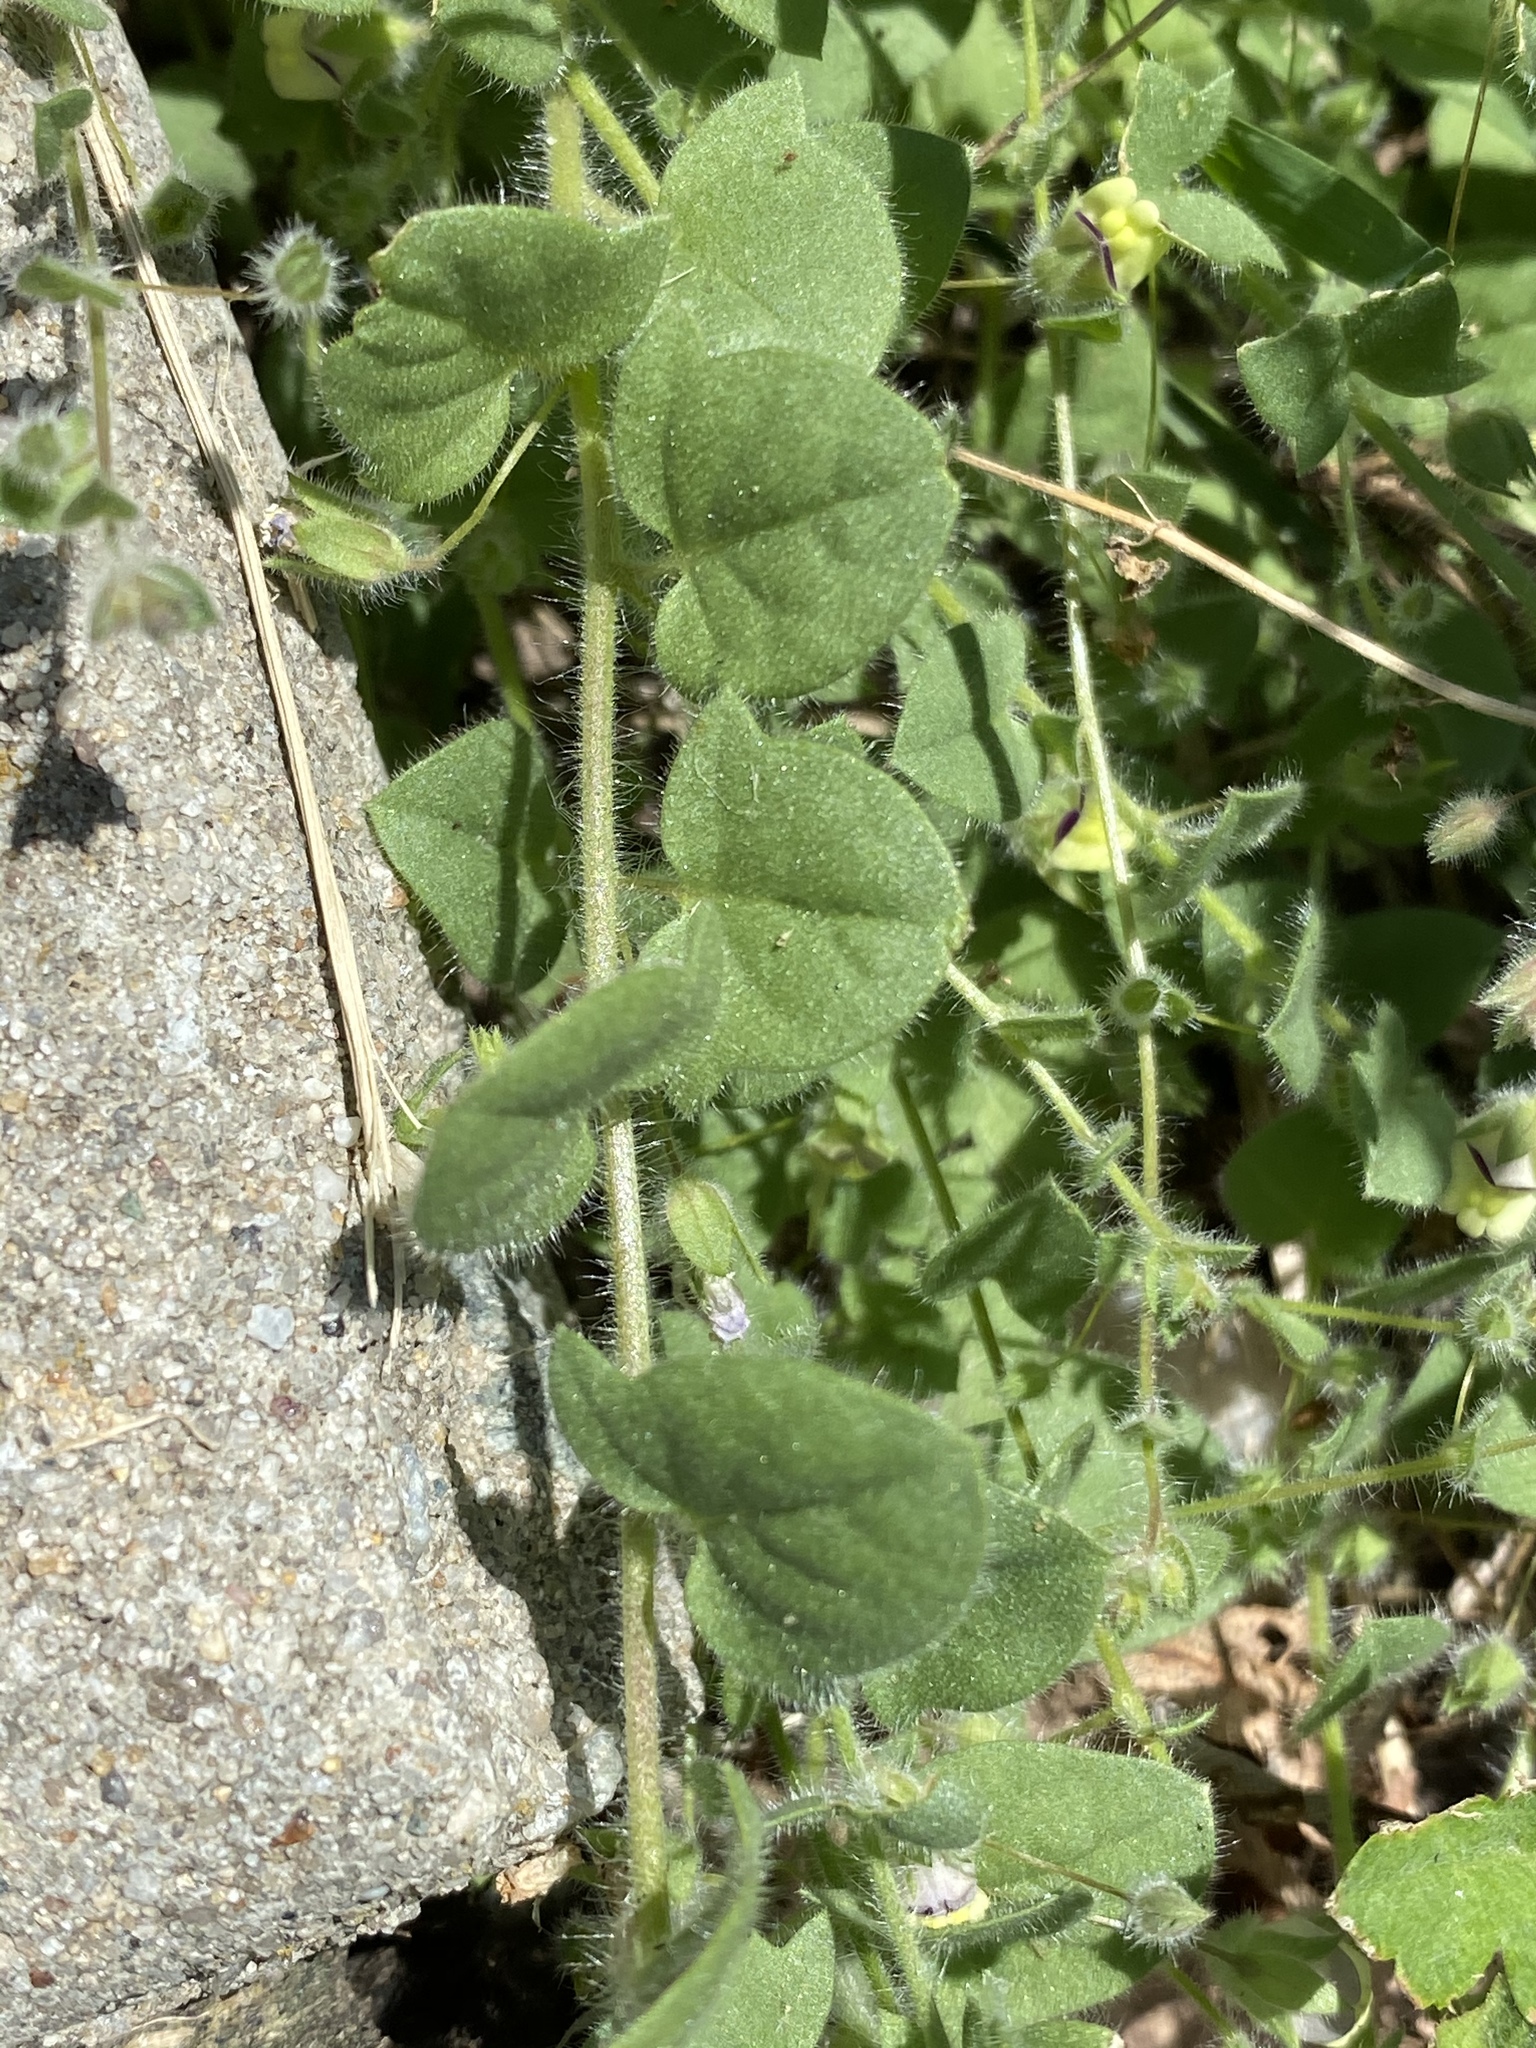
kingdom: Plantae
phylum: Tracheophyta
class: Magnoliopsida
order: Lamiales
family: Plantaginaceae
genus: Kickxia
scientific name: Kickxia elatine
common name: Sharp-leaved fluellen
